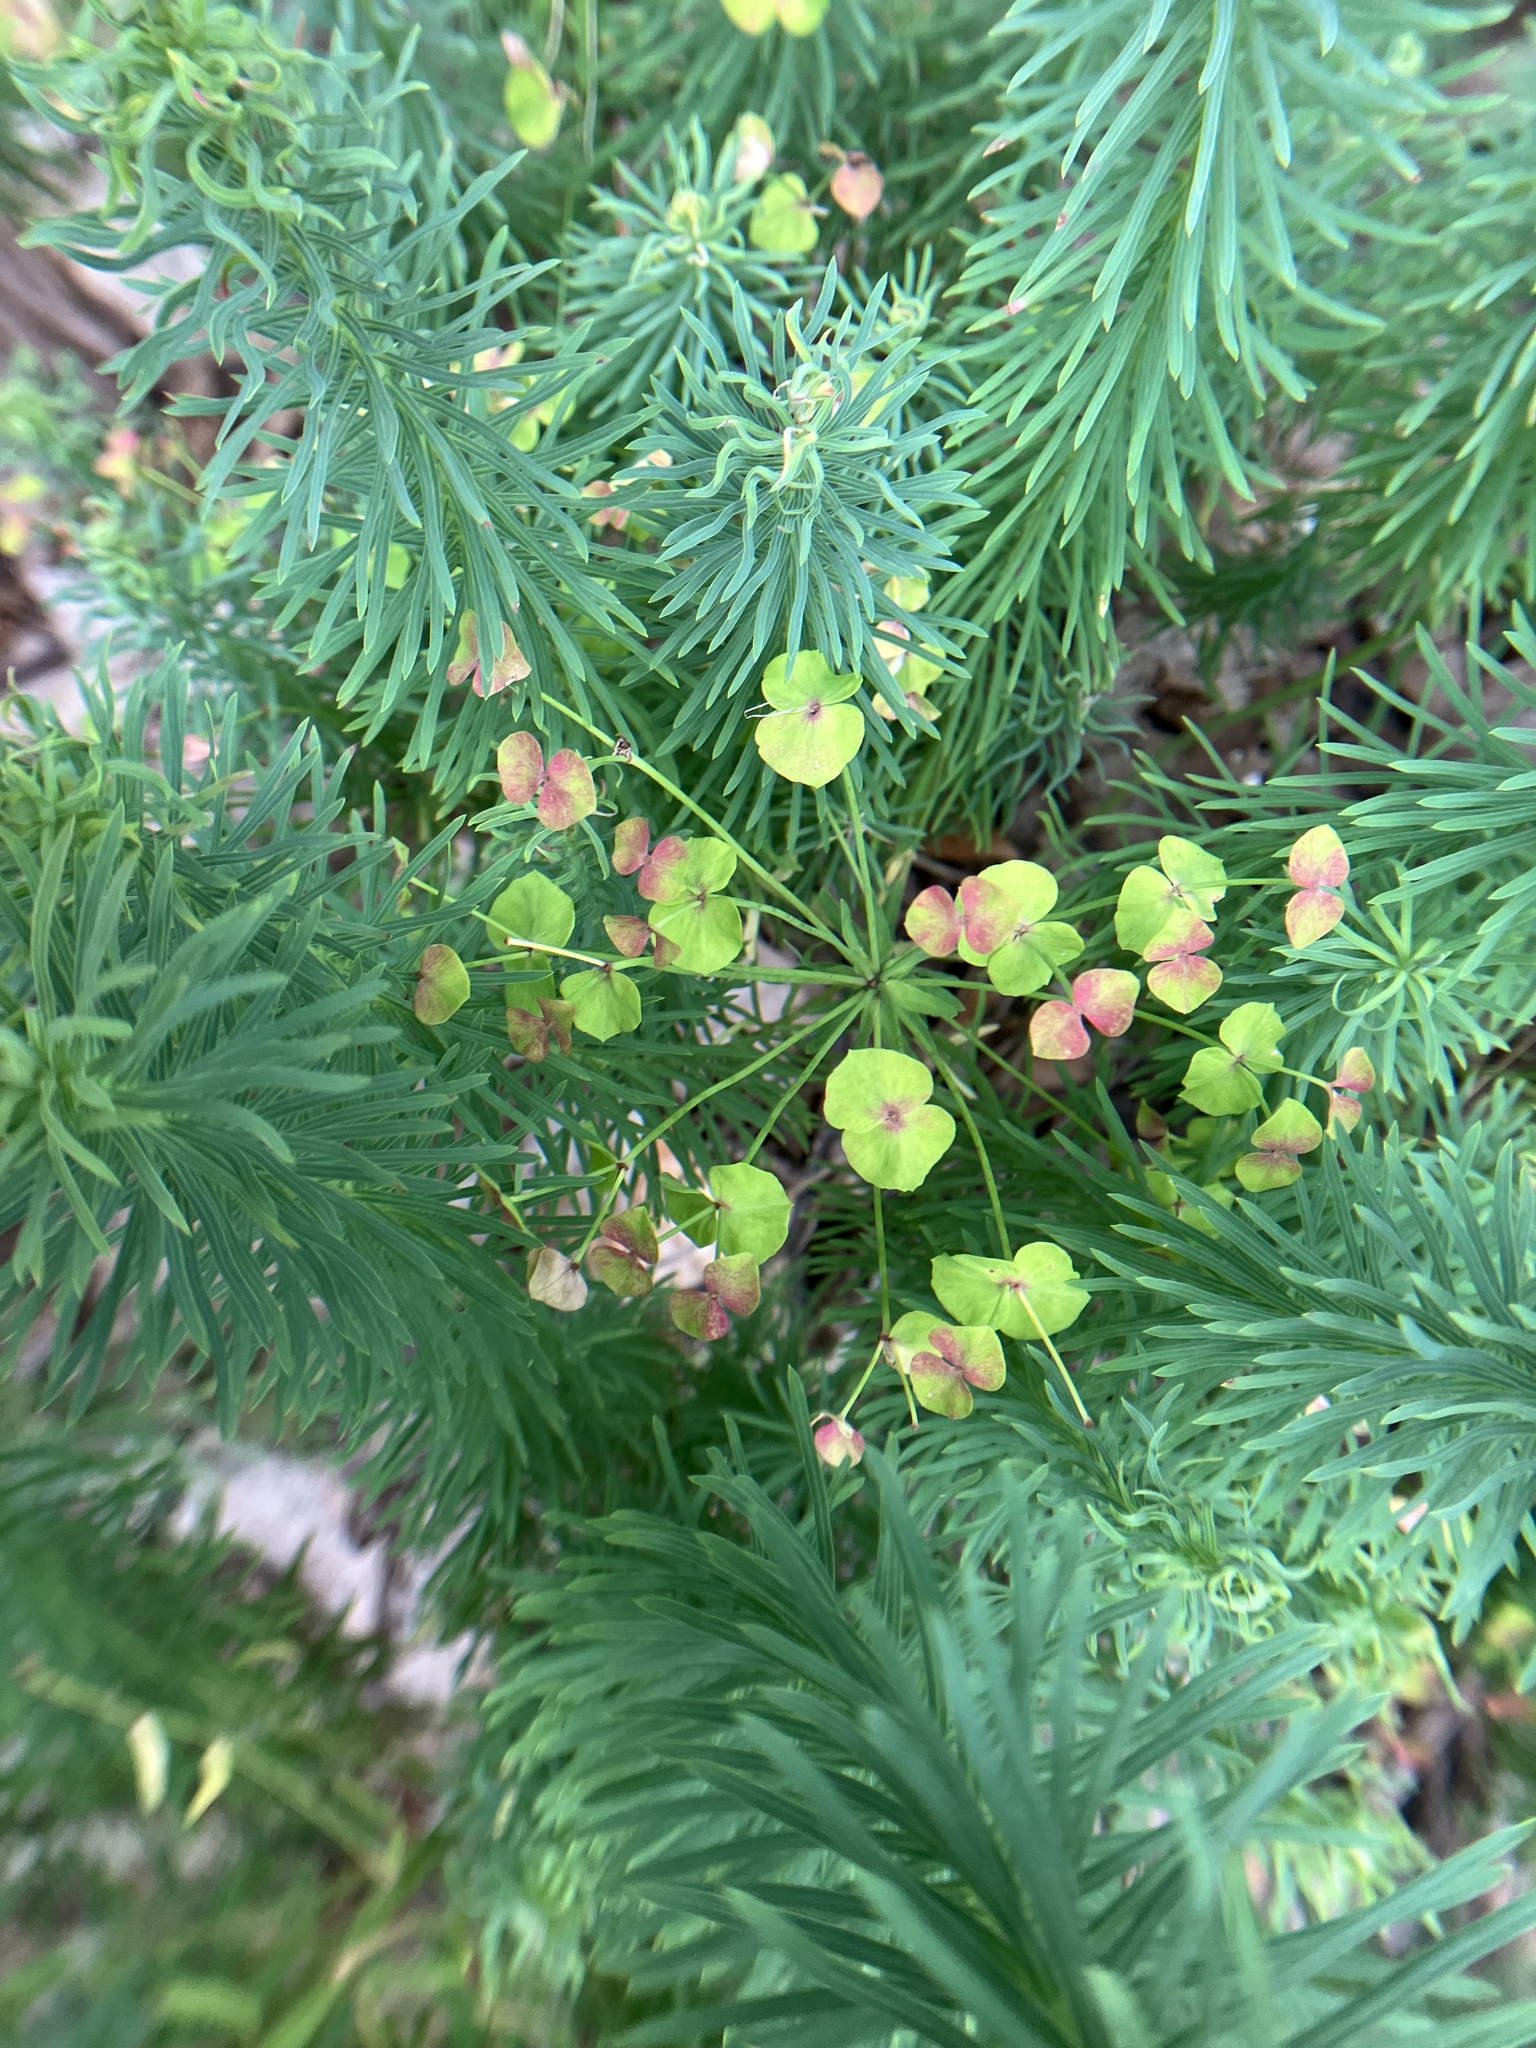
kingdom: Plantae
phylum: Tracheophyta
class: Magnoliopsida
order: Malpighiales
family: Euphorbiaceae
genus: Euphorbia
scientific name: Euphorbia cyparissias
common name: Cypress spurge
